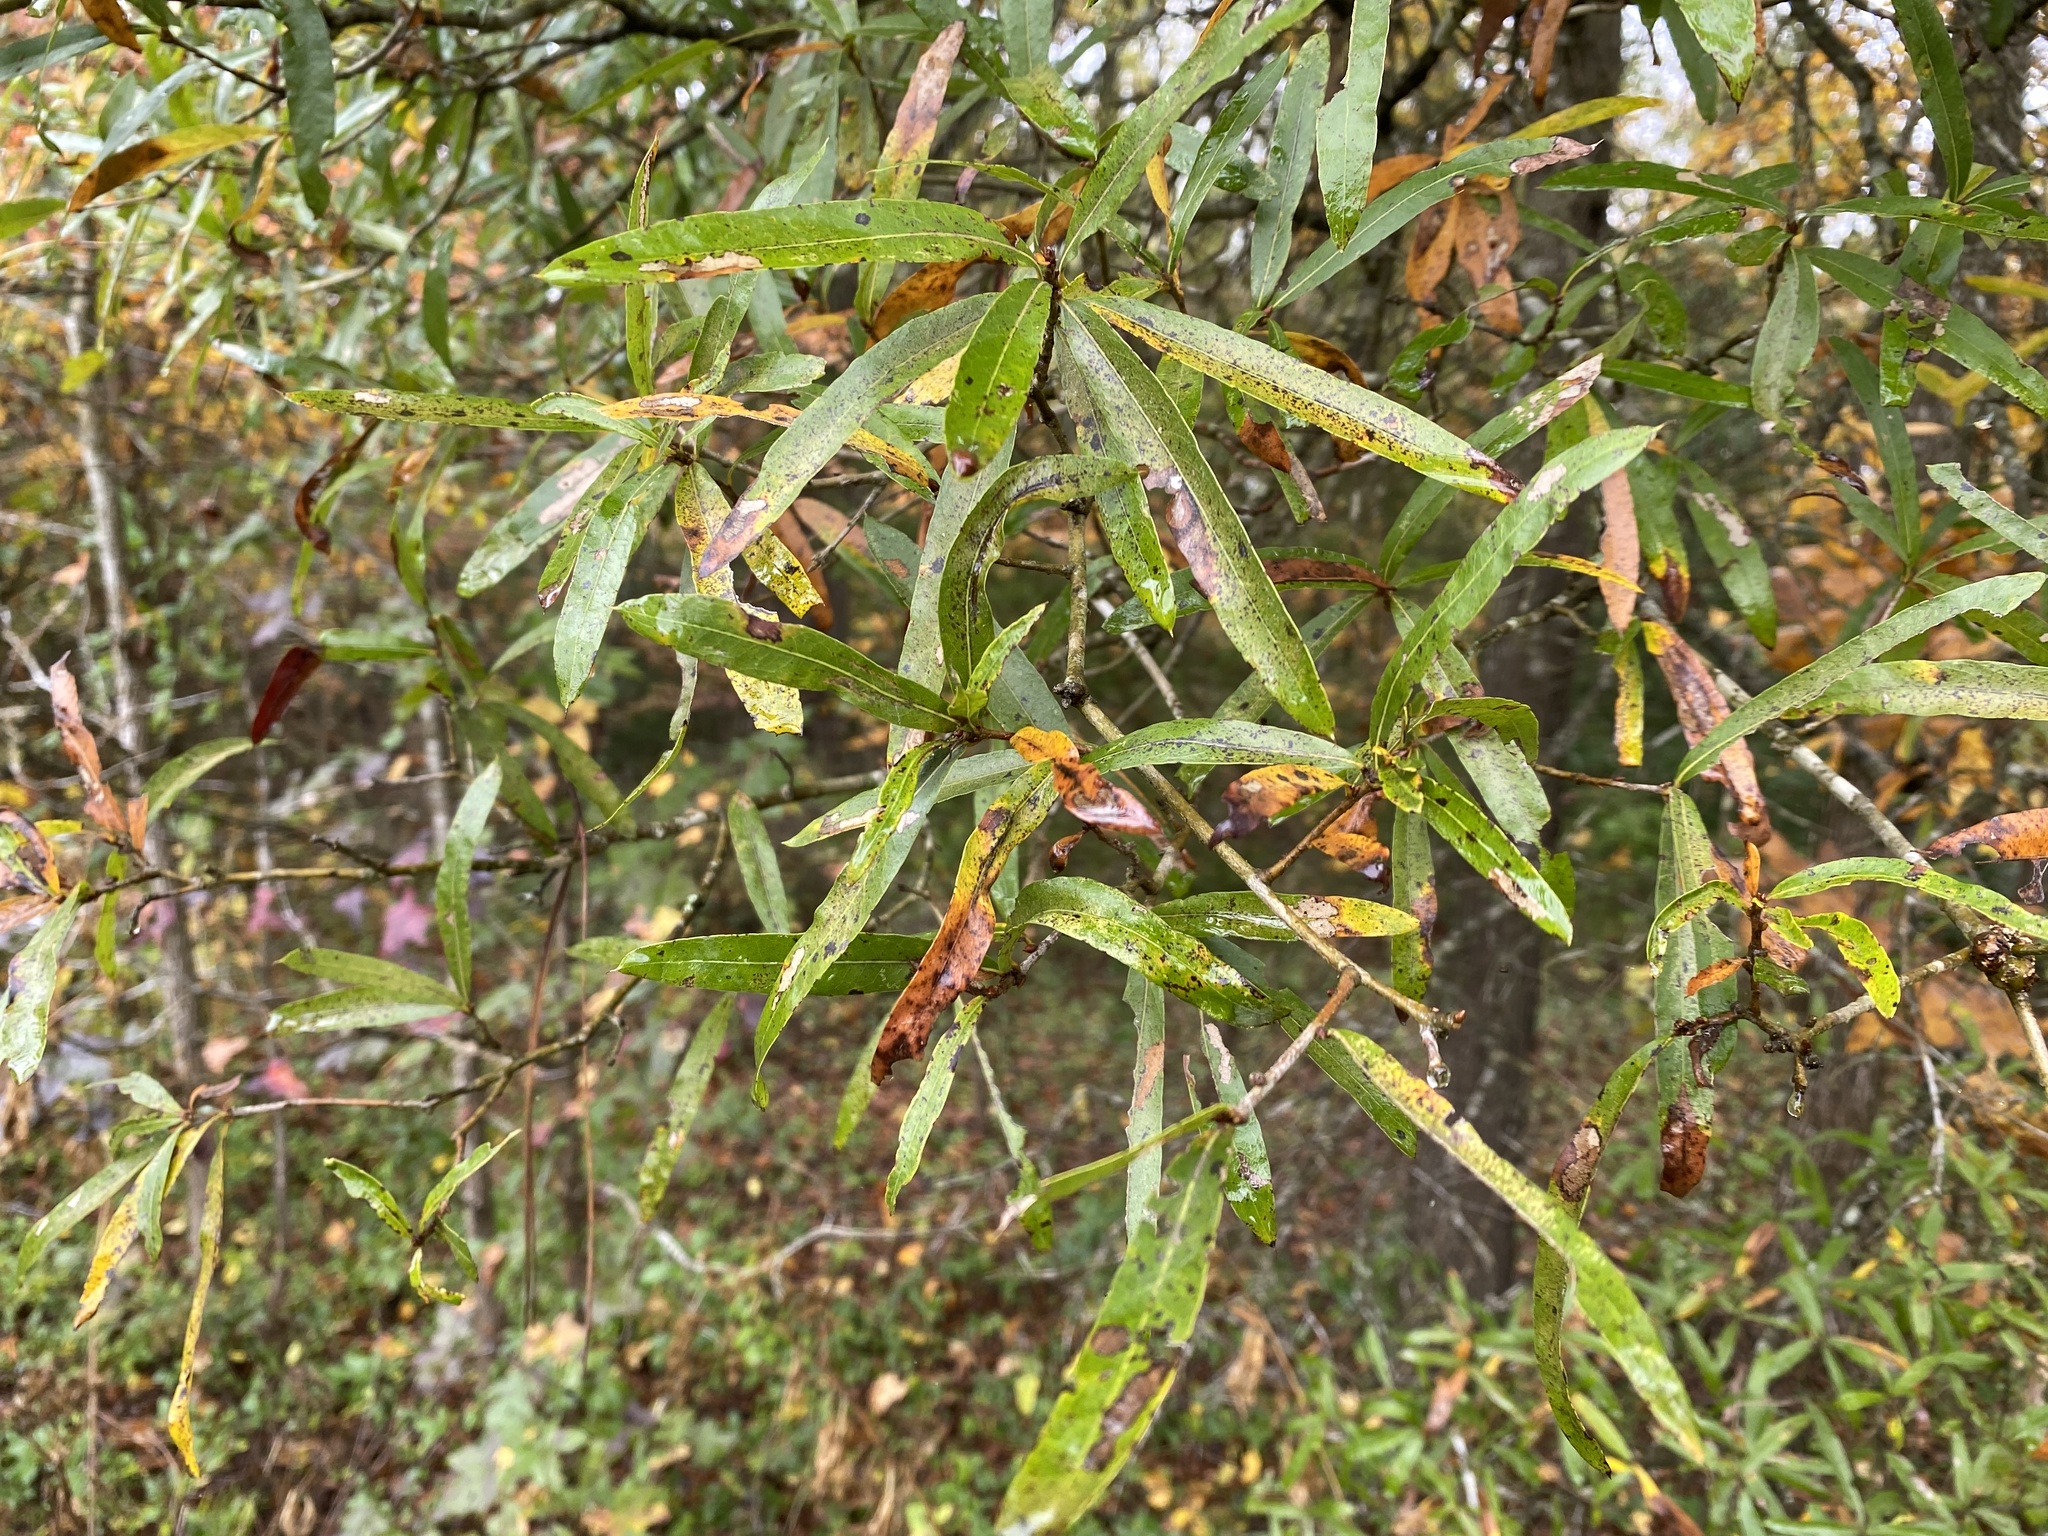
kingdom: Plantae
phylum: Tracheophyta
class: Magnoliopsida
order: Fagales
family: Fagaceae
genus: Quercus
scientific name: Quercus phellos
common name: Willow oak
